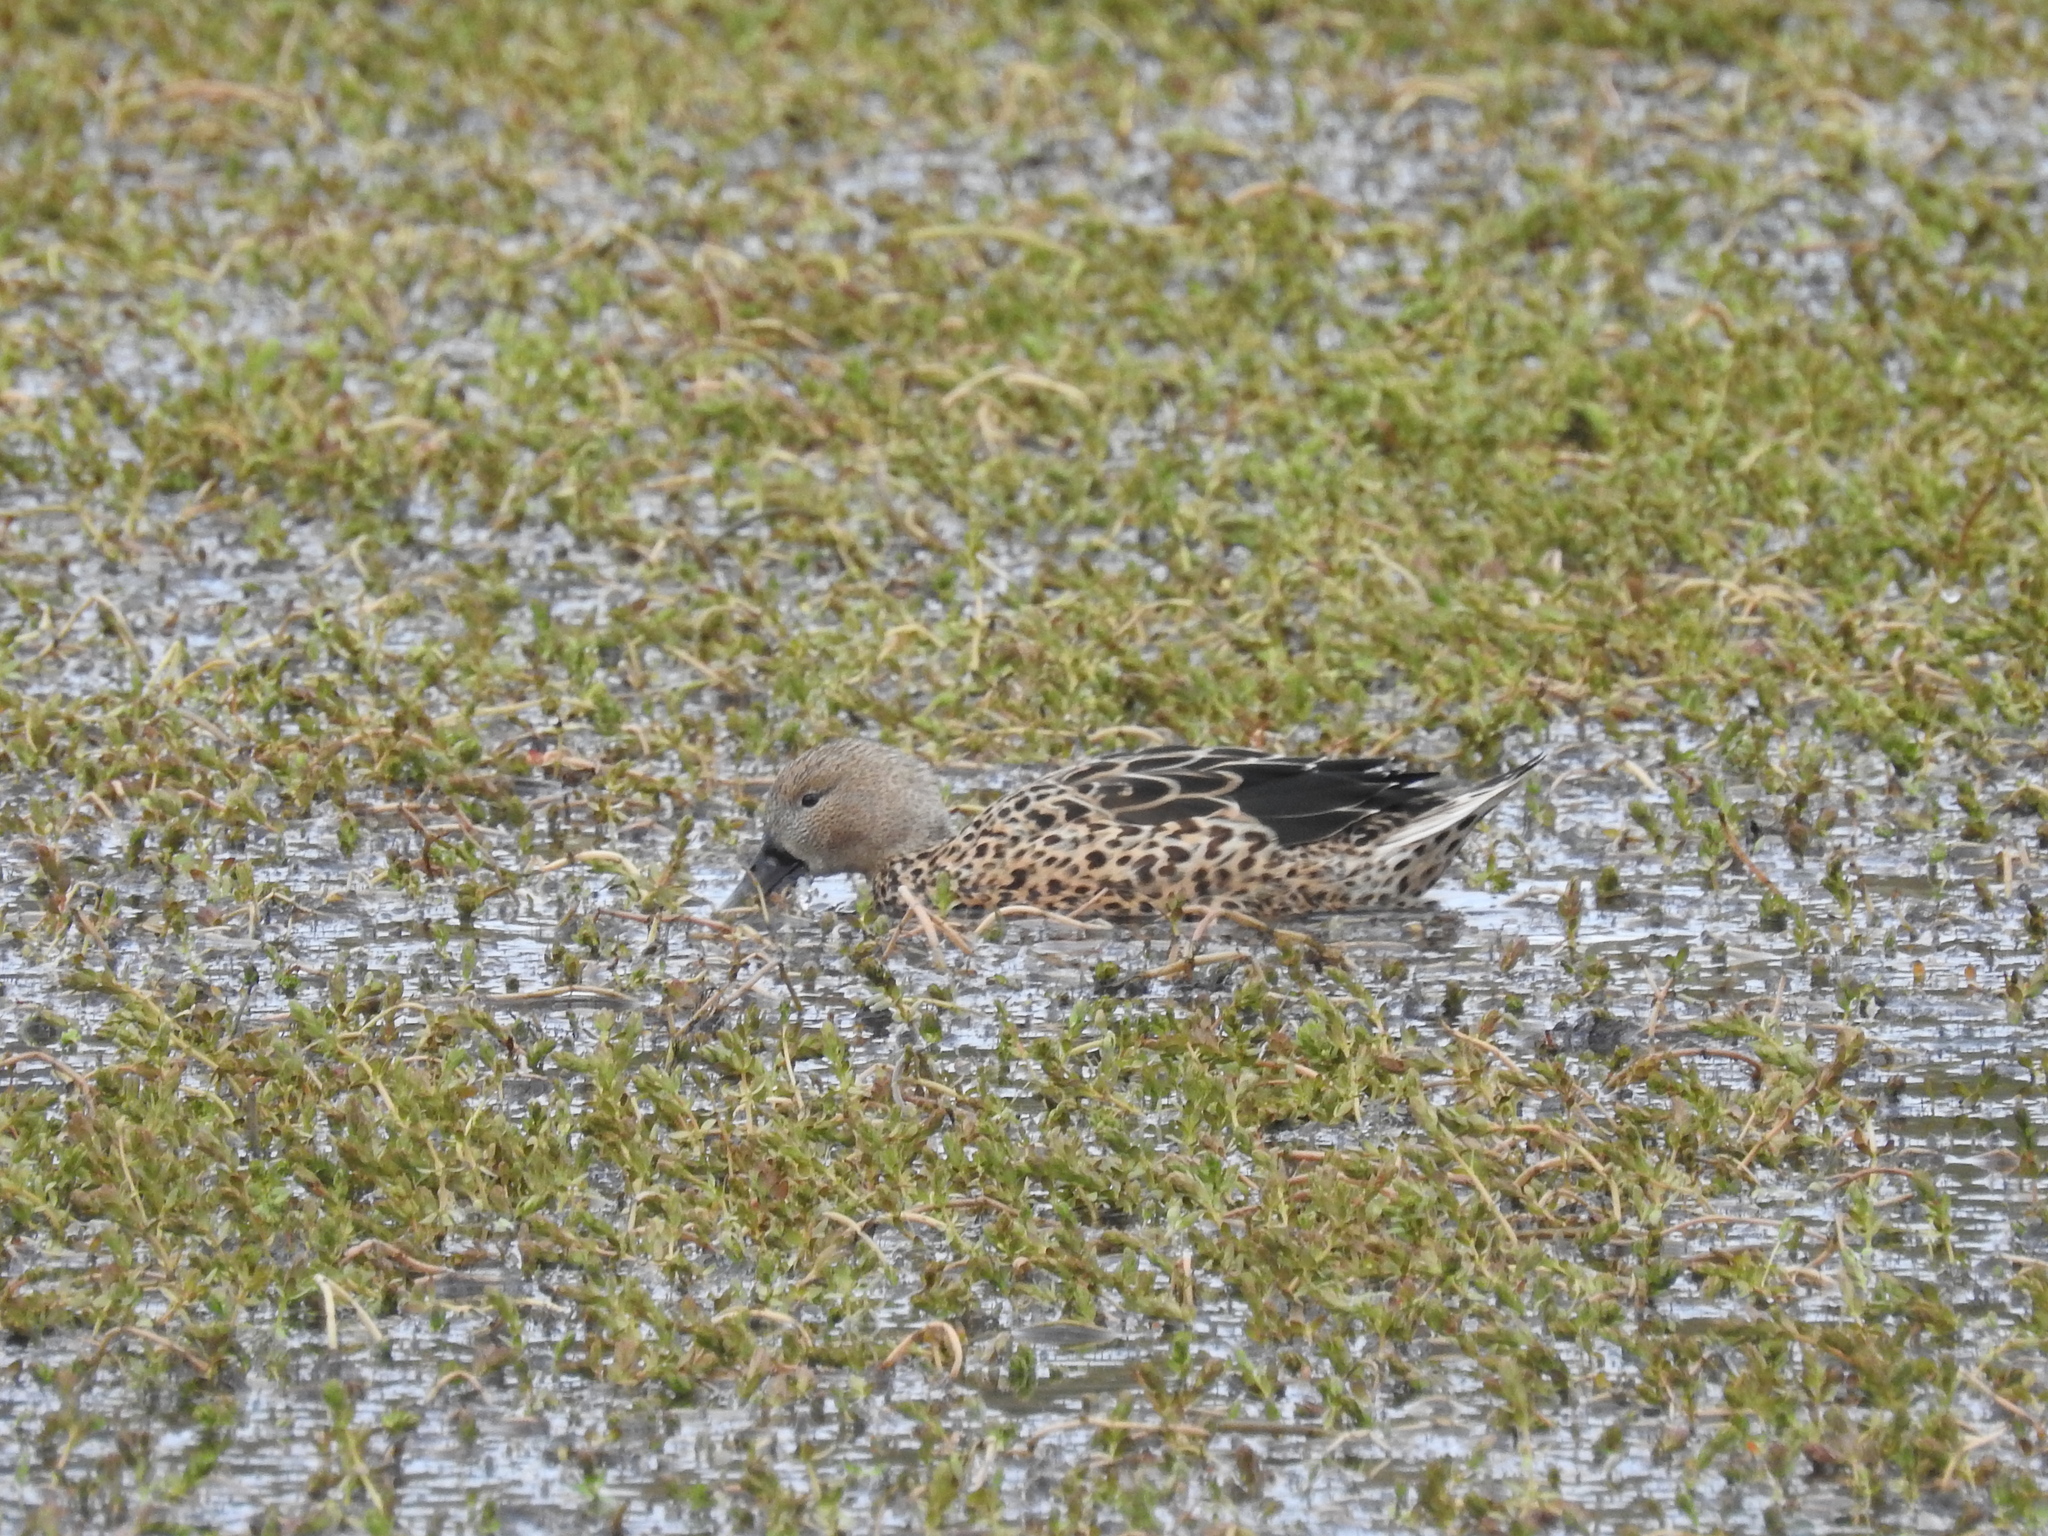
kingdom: Animalia
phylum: Chordata
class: Aves
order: Anseriformes
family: Anatidae
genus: Spatula
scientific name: Spatula platalea
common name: Red shoveler
